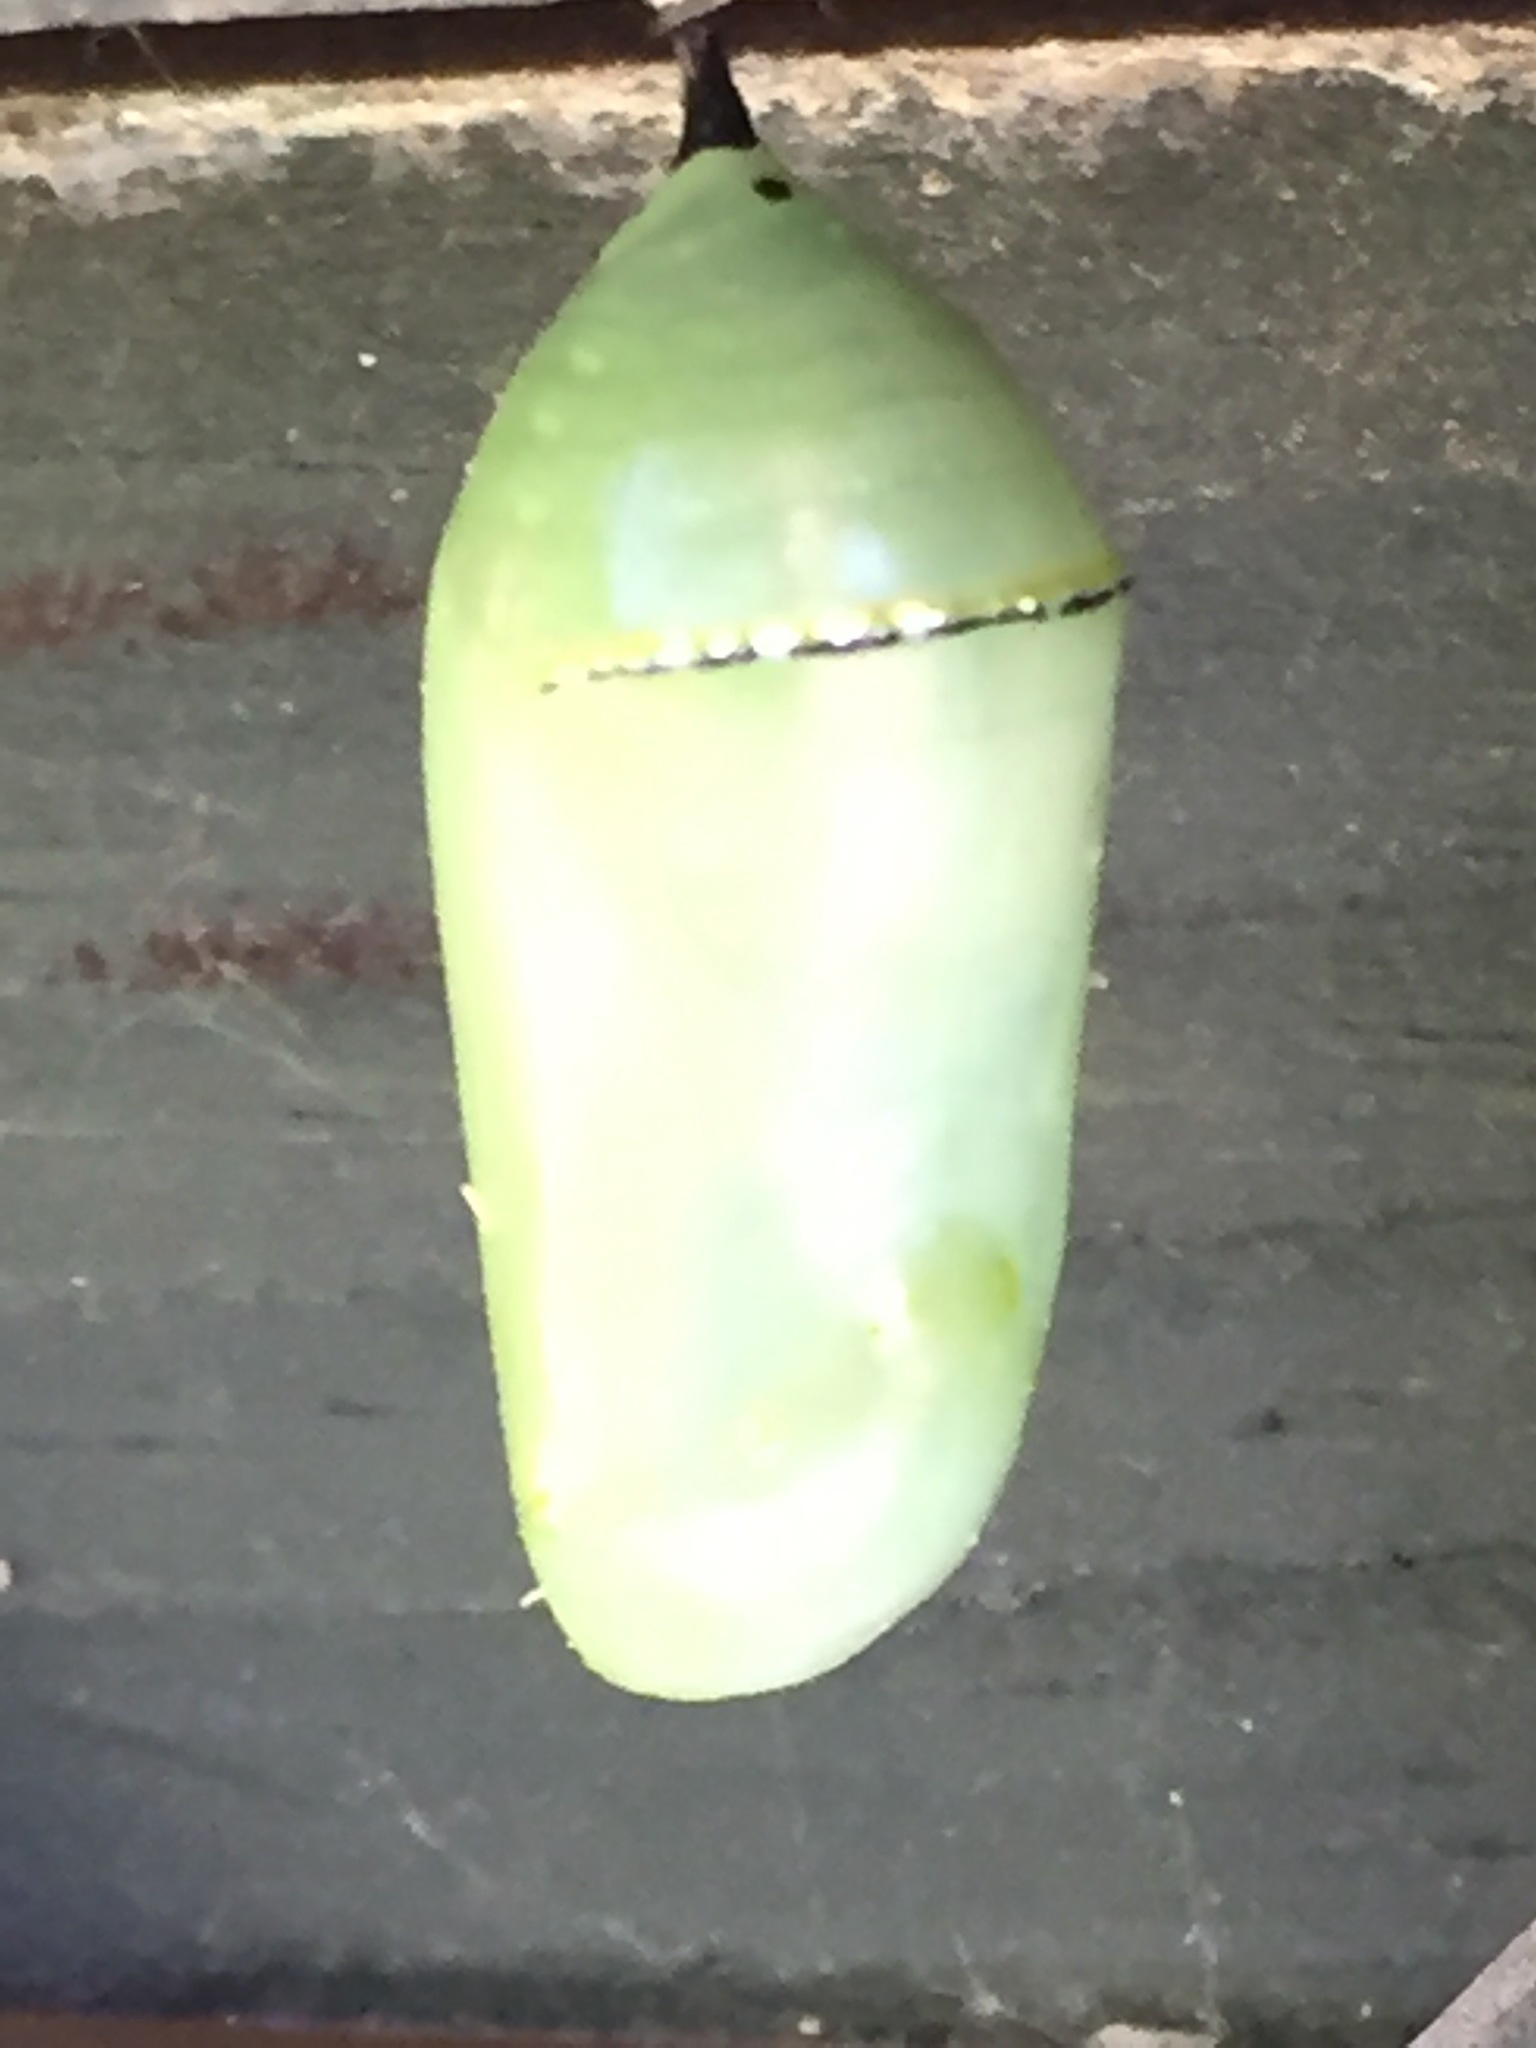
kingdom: Animalia
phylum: Arthropoda
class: Insecta
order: Lepidoptera
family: Nymphalidae
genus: Danaus
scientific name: Danaus plexippus
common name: Monarch
